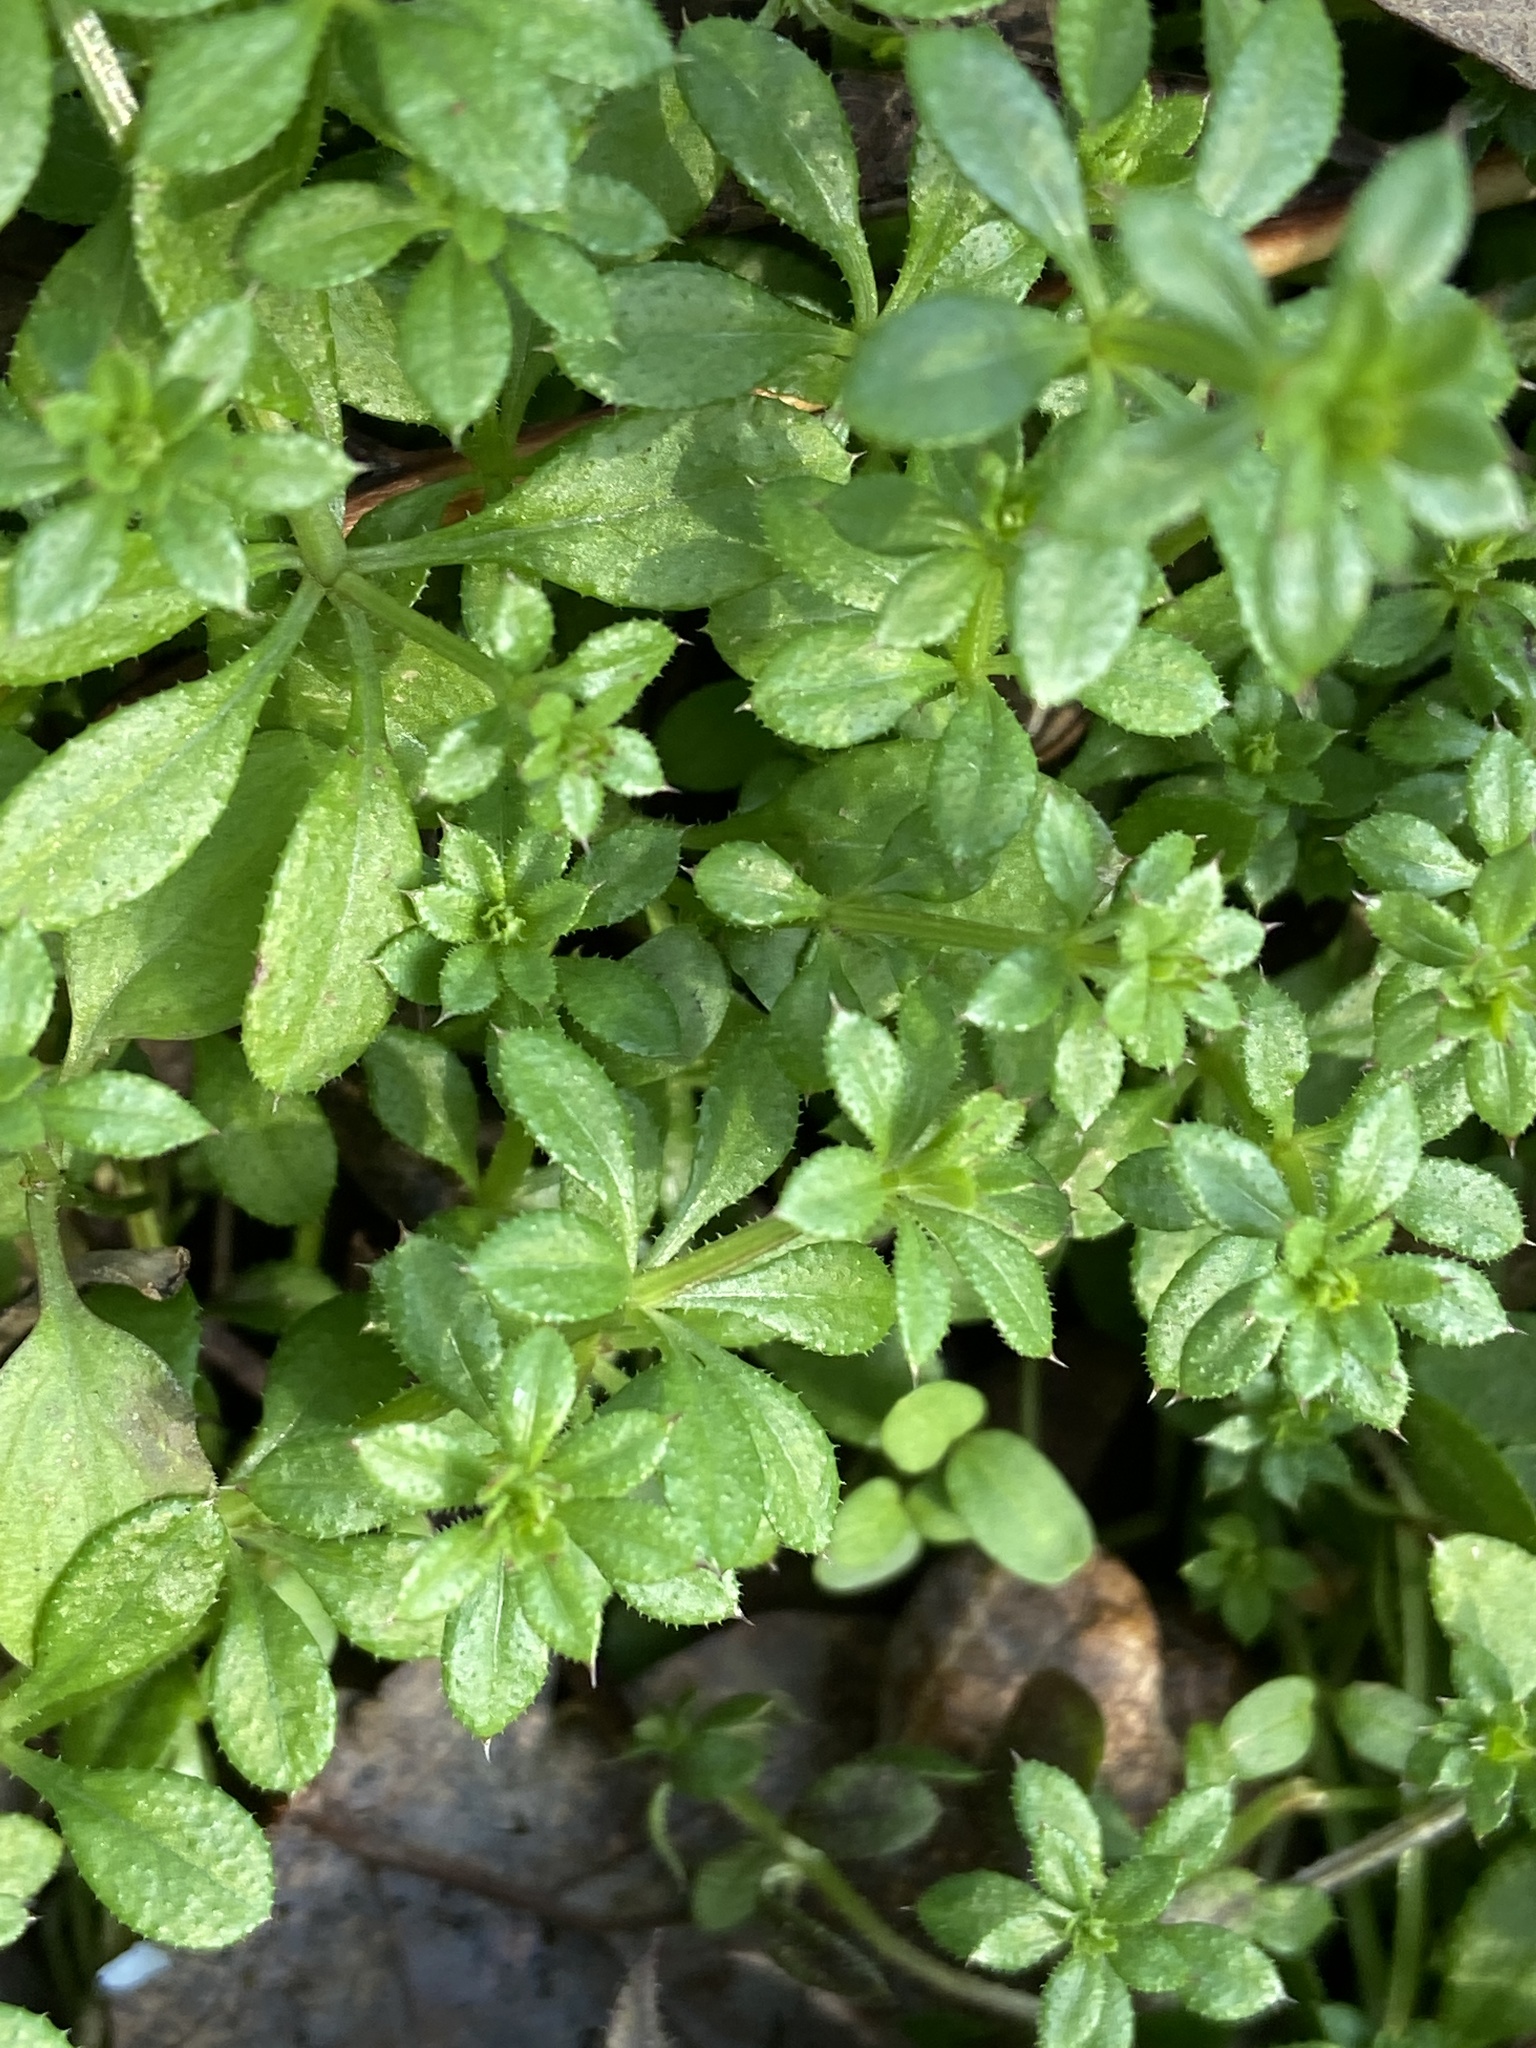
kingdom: Plantae
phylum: Tracheophyta
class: Magnoliopsida
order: Gentianales
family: Rubiaceae
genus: Galium
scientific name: Galium aparine
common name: Cleavers
